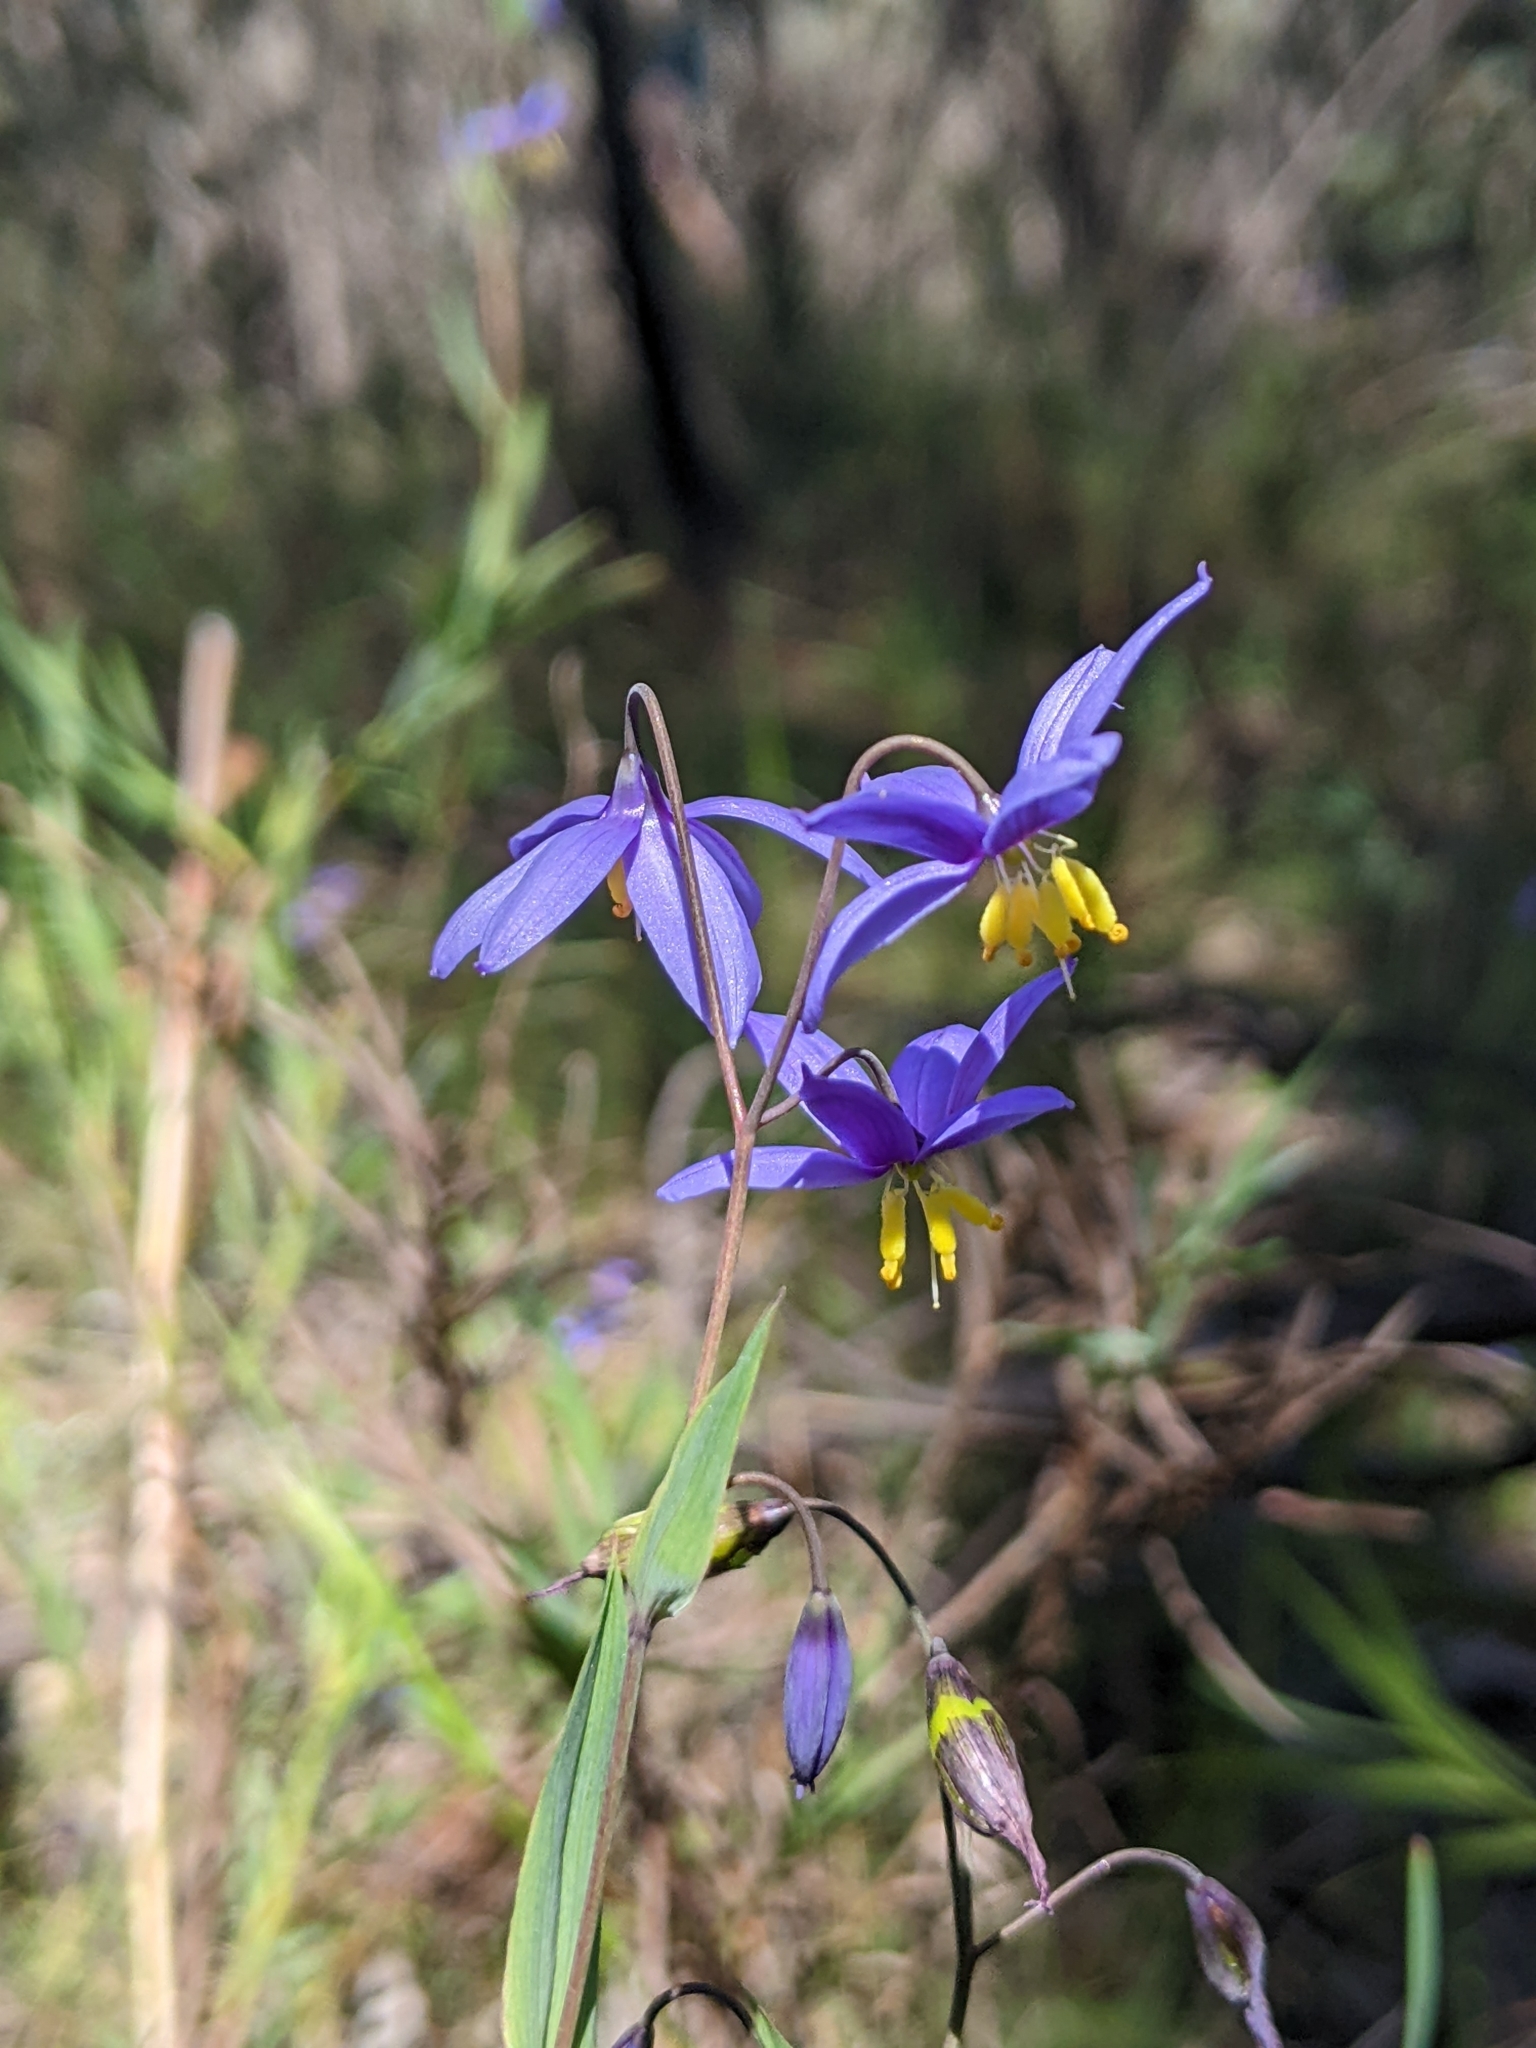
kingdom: Plantae
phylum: Tracheophyta
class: Liliopsida
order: Asparagales
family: Asphodelaceae
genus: Stypandra
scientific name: Stypandra glauca
